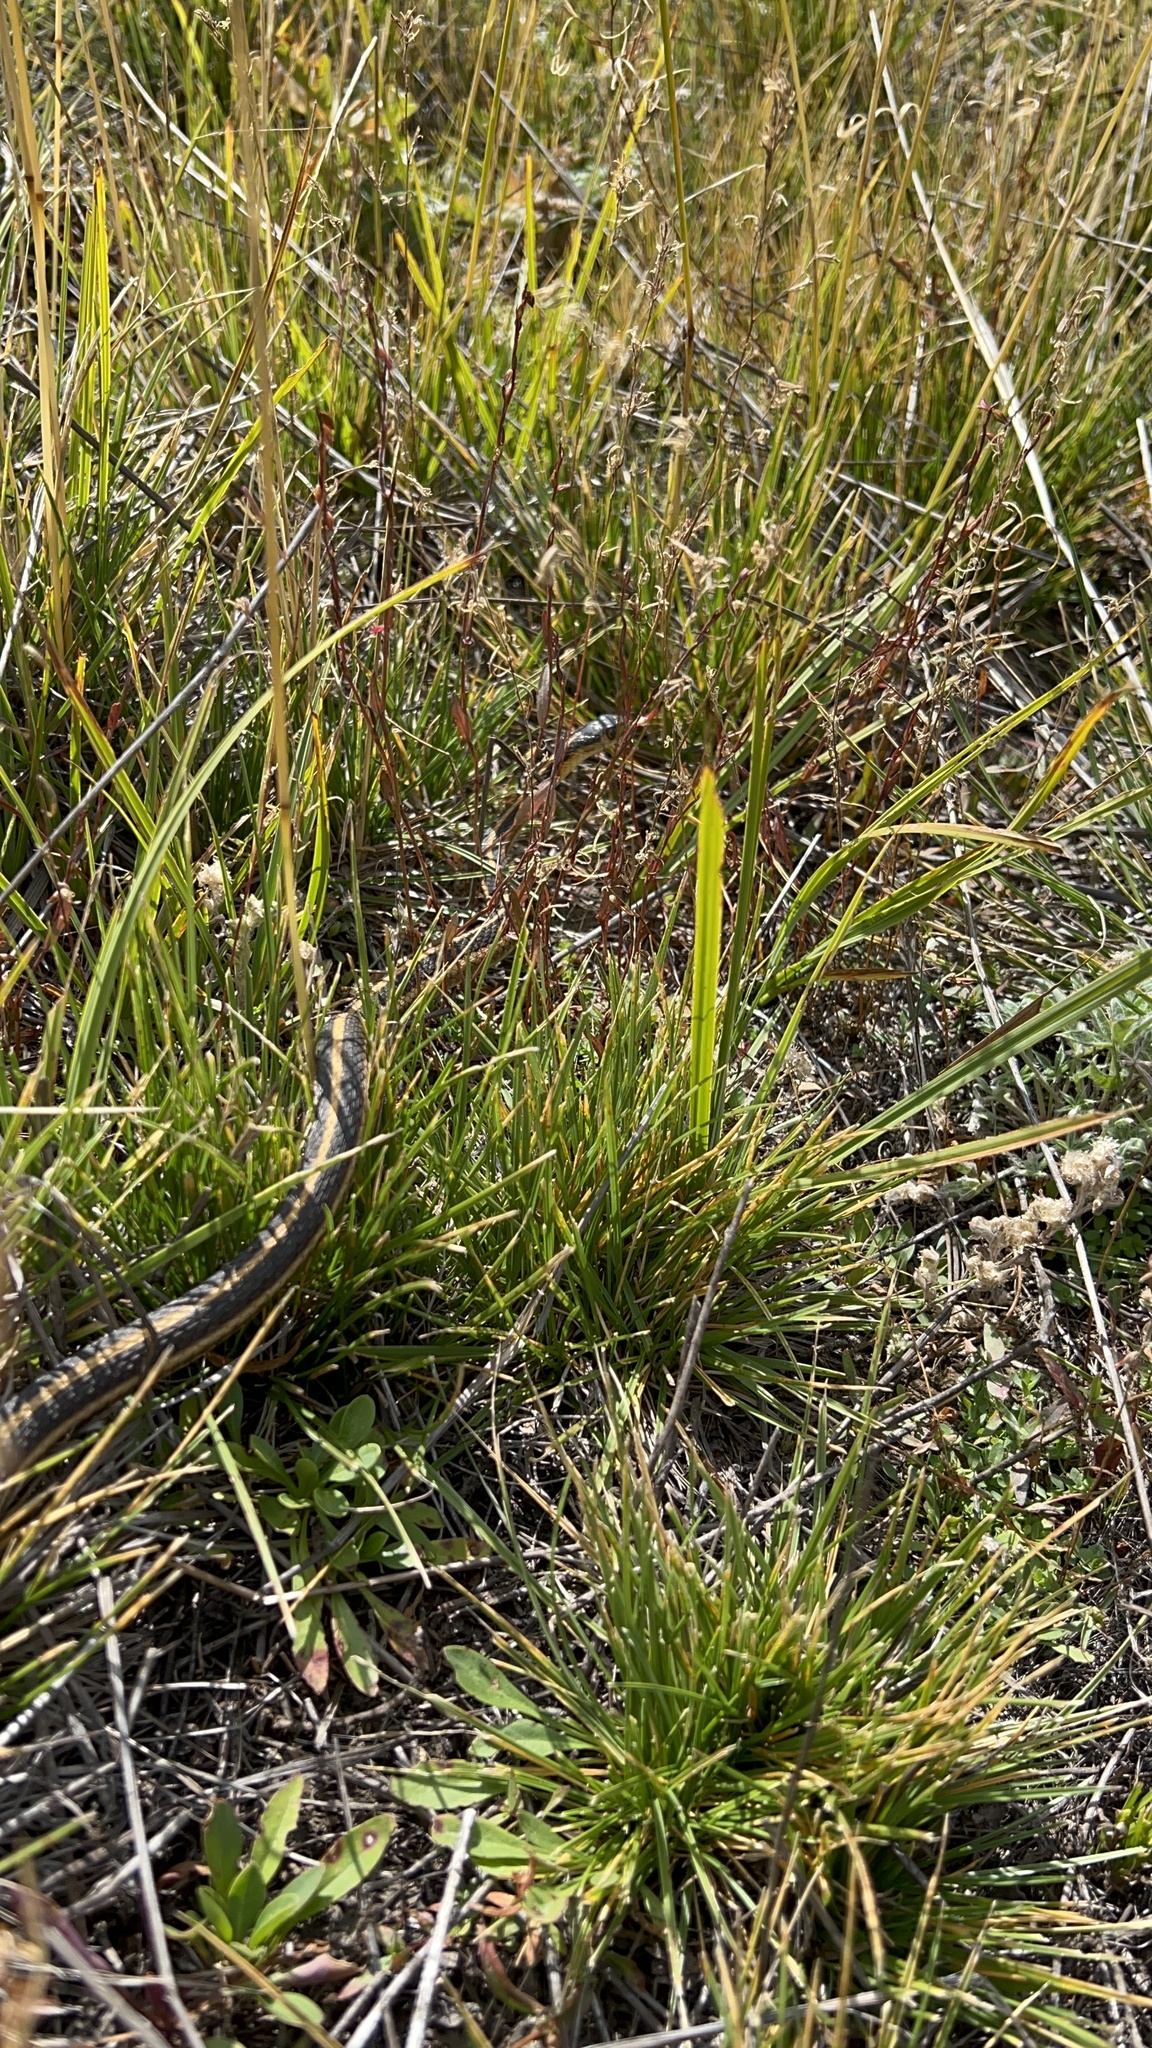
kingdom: Animalia
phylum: Chordata
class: Squamata
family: Colubridae
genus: Thamnophis
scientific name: Thamnophis sirtalis
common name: Common garter snake
